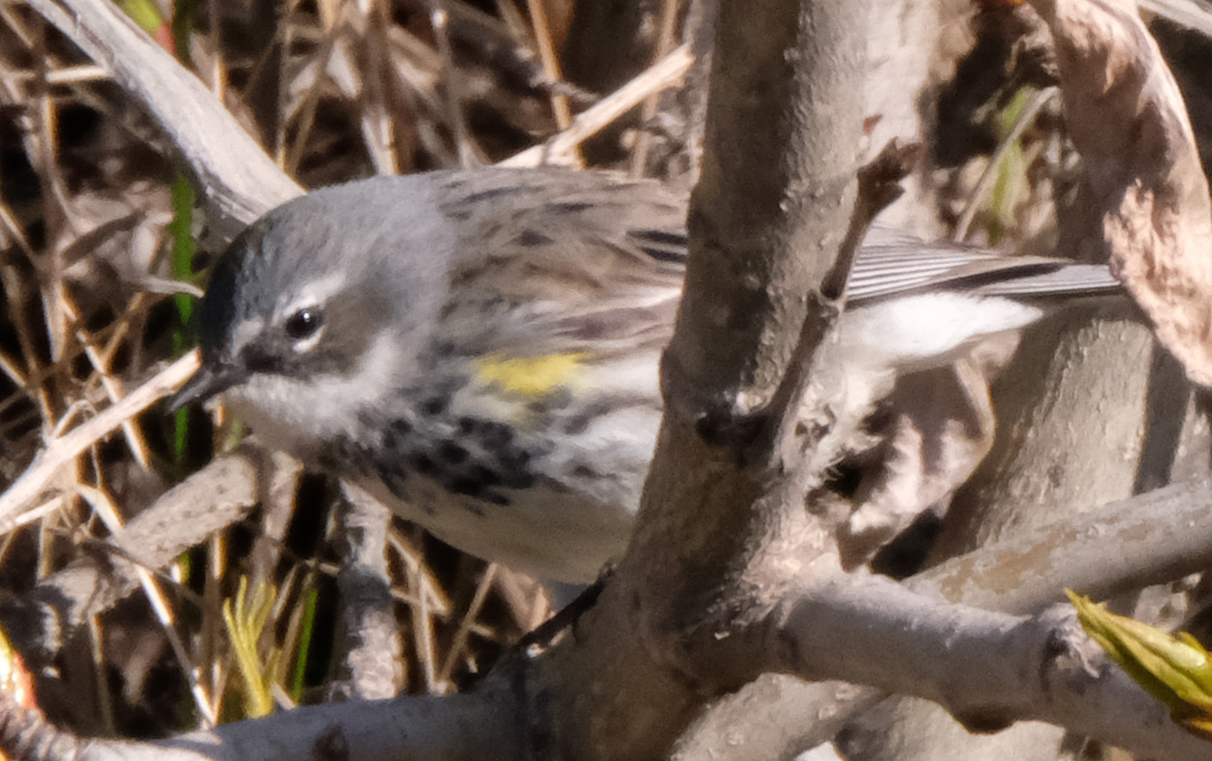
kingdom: Animalia
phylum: Chordata
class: Aves
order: Passeriformes
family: Parulidae
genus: Setophaga
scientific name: Setophaga coronata
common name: Myrtle warbler
